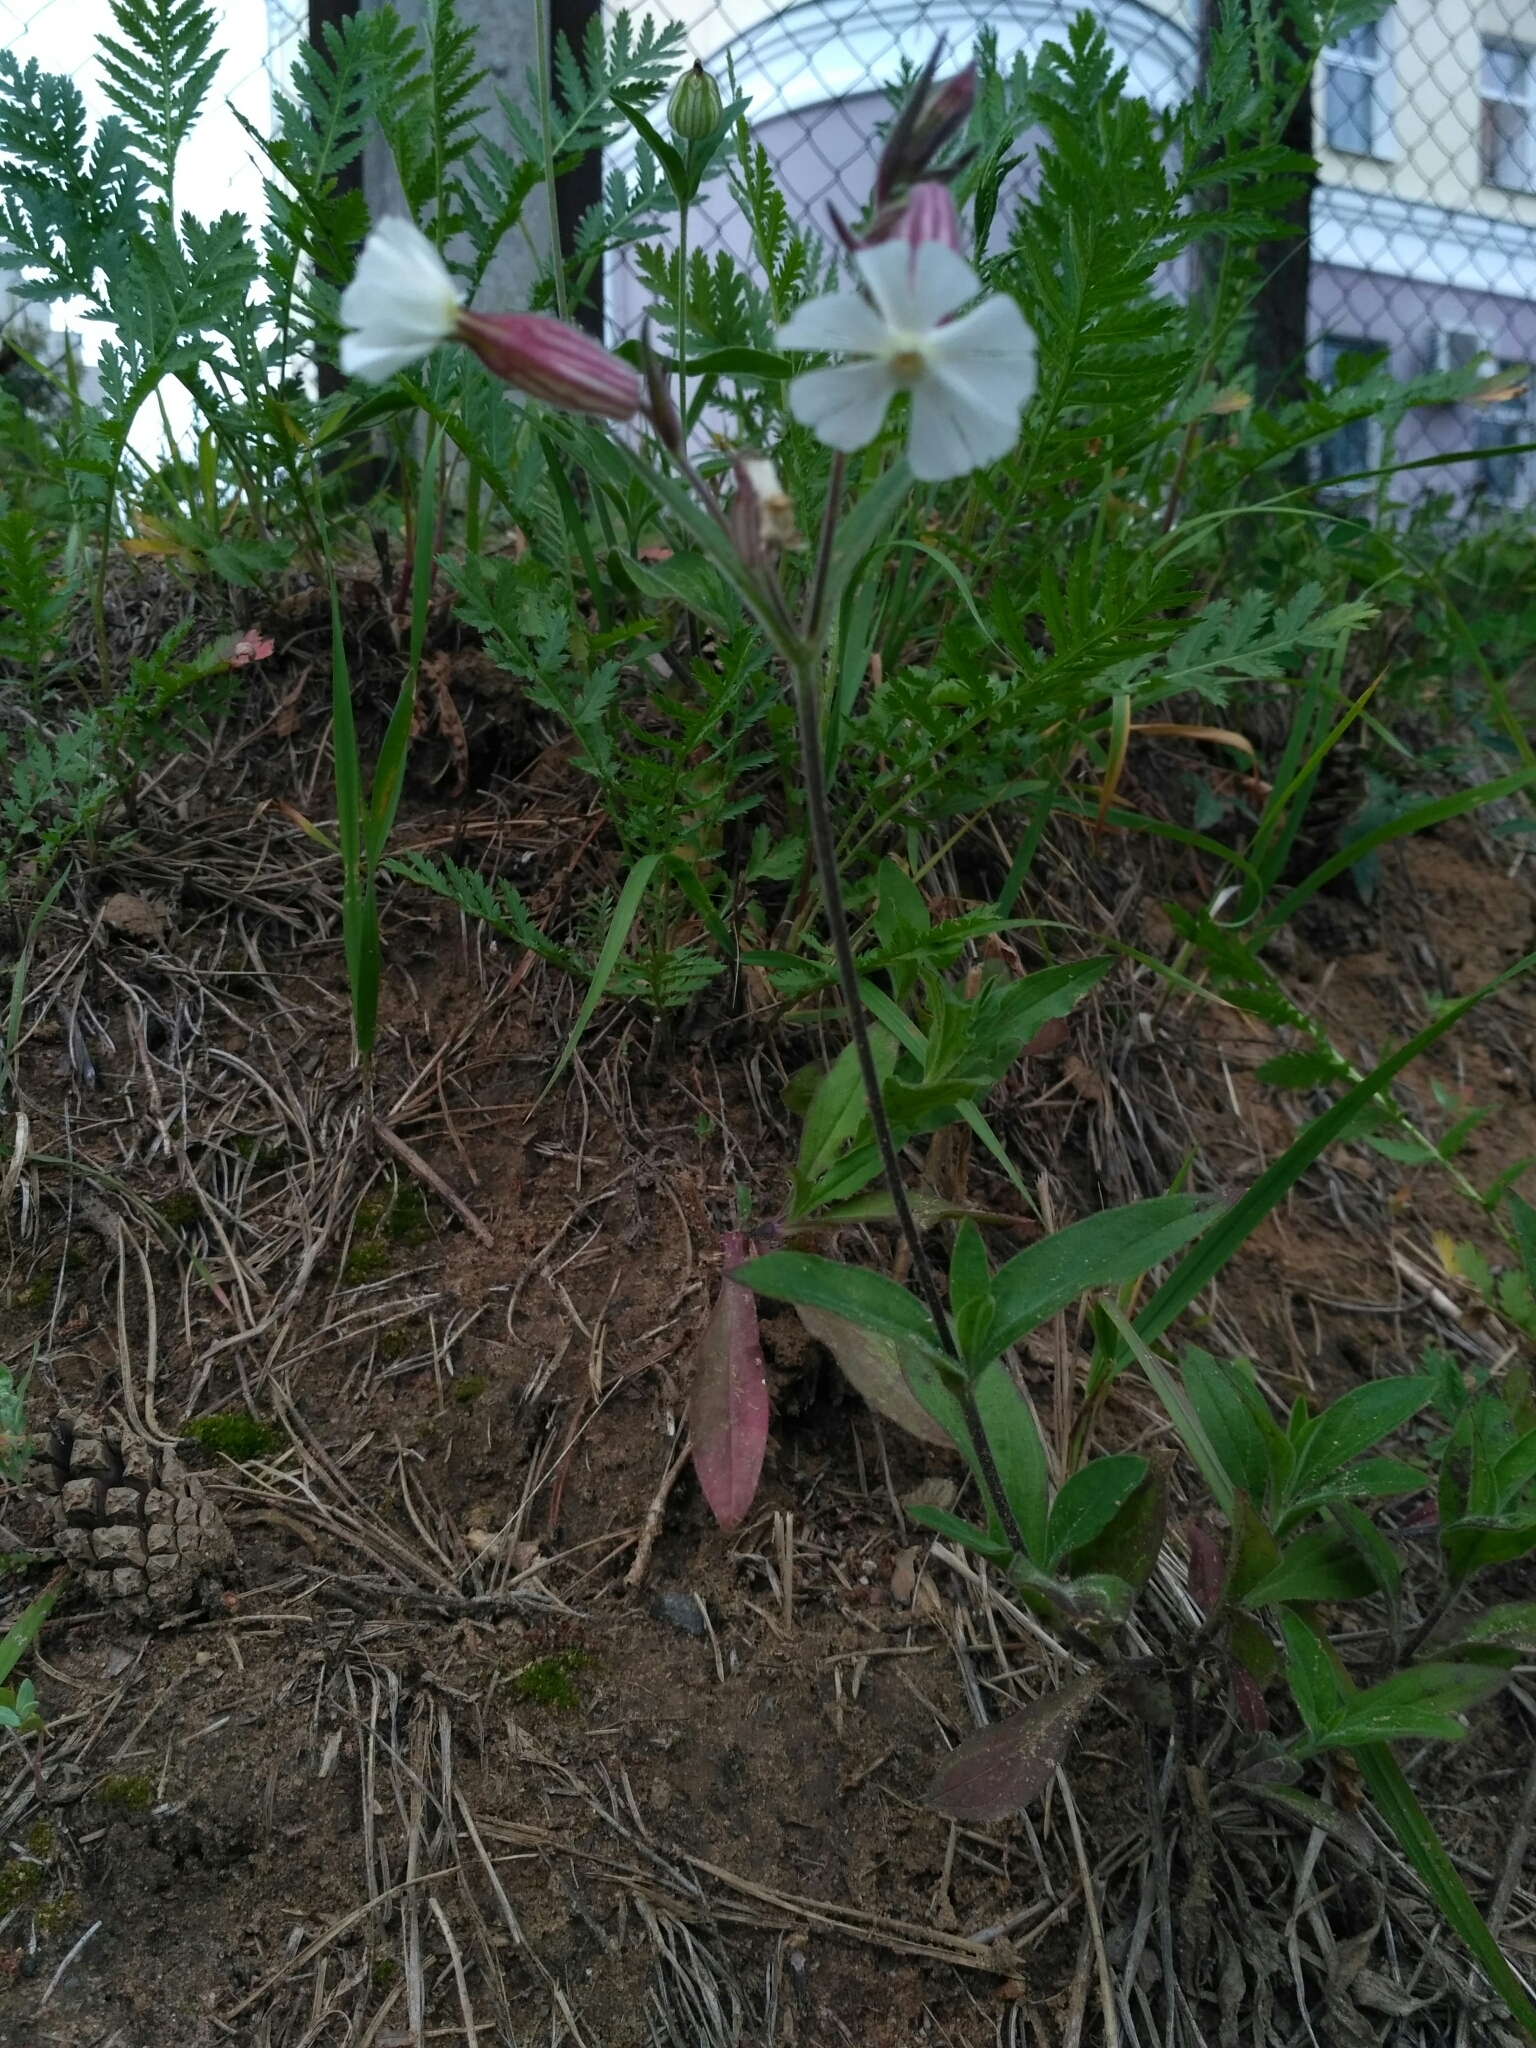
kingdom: Plantae
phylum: Tracheophyta
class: Magnoliopsida
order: Caryophyllales
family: Caryophyllaceae
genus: Silene
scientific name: Silene latifolia
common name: White campion
